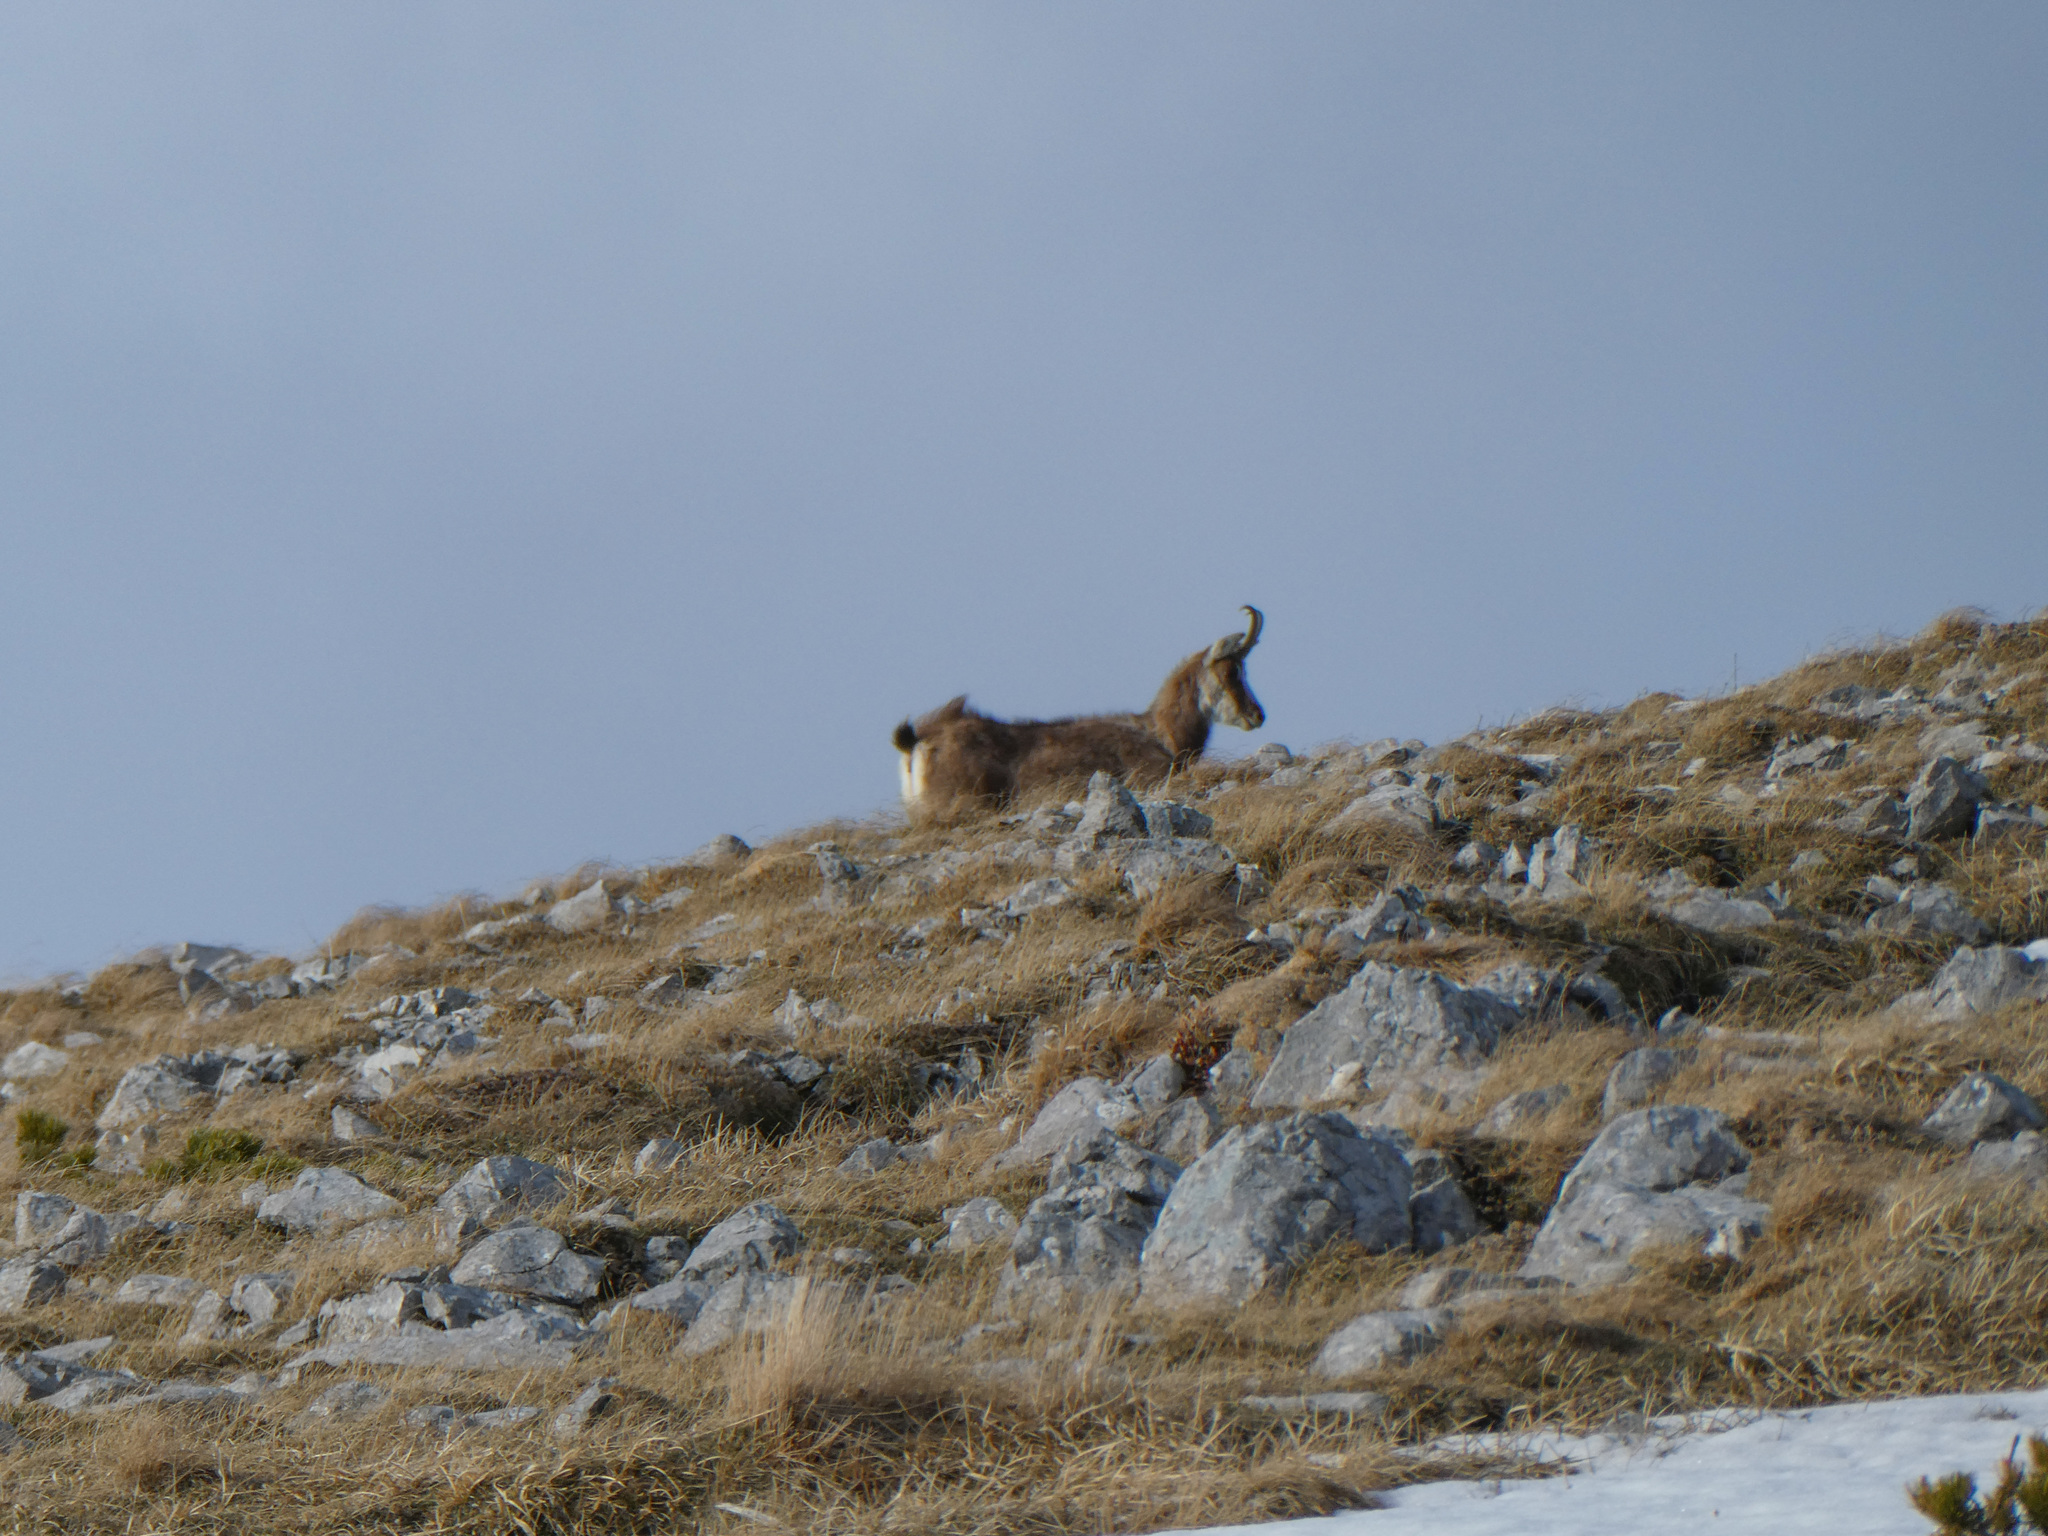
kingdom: Animalia
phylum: Chordata
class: Mammalia
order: Artiodactyla
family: Bovidae
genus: Rupicapra
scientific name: Rupicapra rupicapra
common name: Chamois
